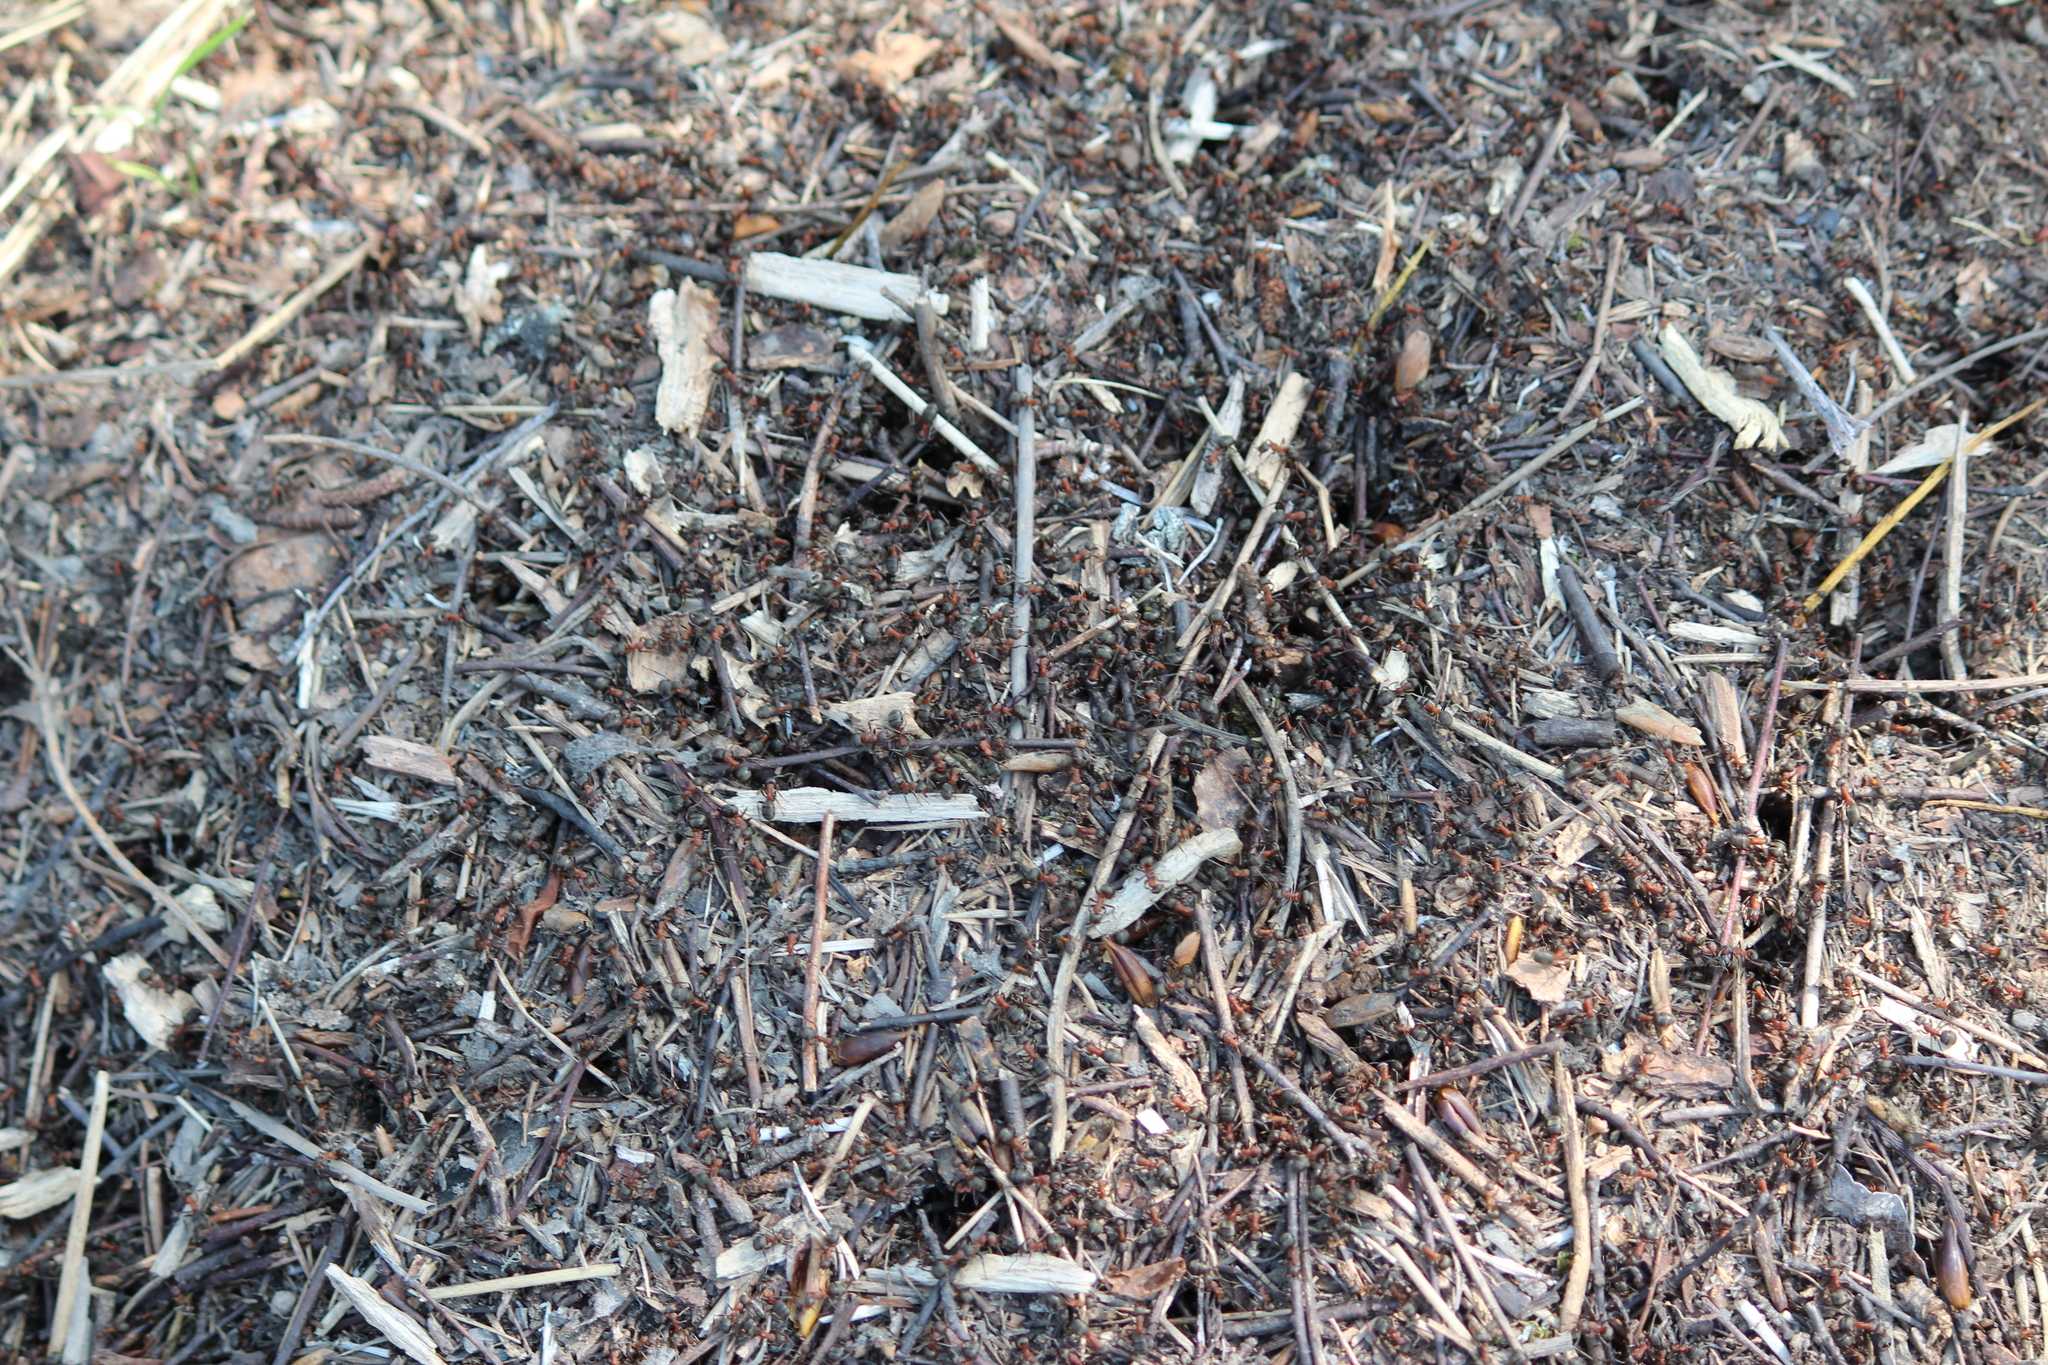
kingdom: Animalia
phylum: Arthropoda
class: Insecta
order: Hymenoptera
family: Formicidae
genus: Formica
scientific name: Formica
